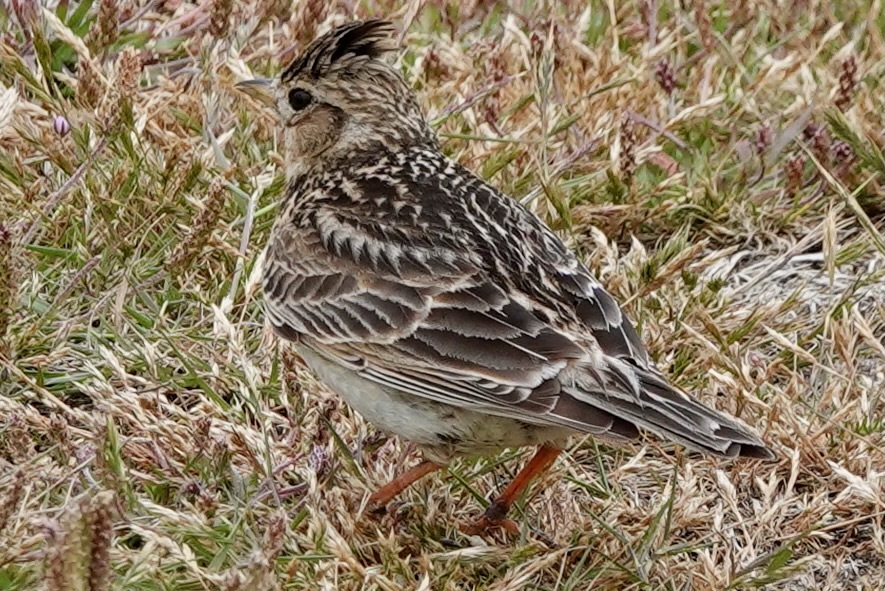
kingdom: Animalia
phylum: Chordata
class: Aves
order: Passeriformes
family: Alaudidae
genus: Alauda
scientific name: Alauda arvensis
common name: Eurasian skylark
